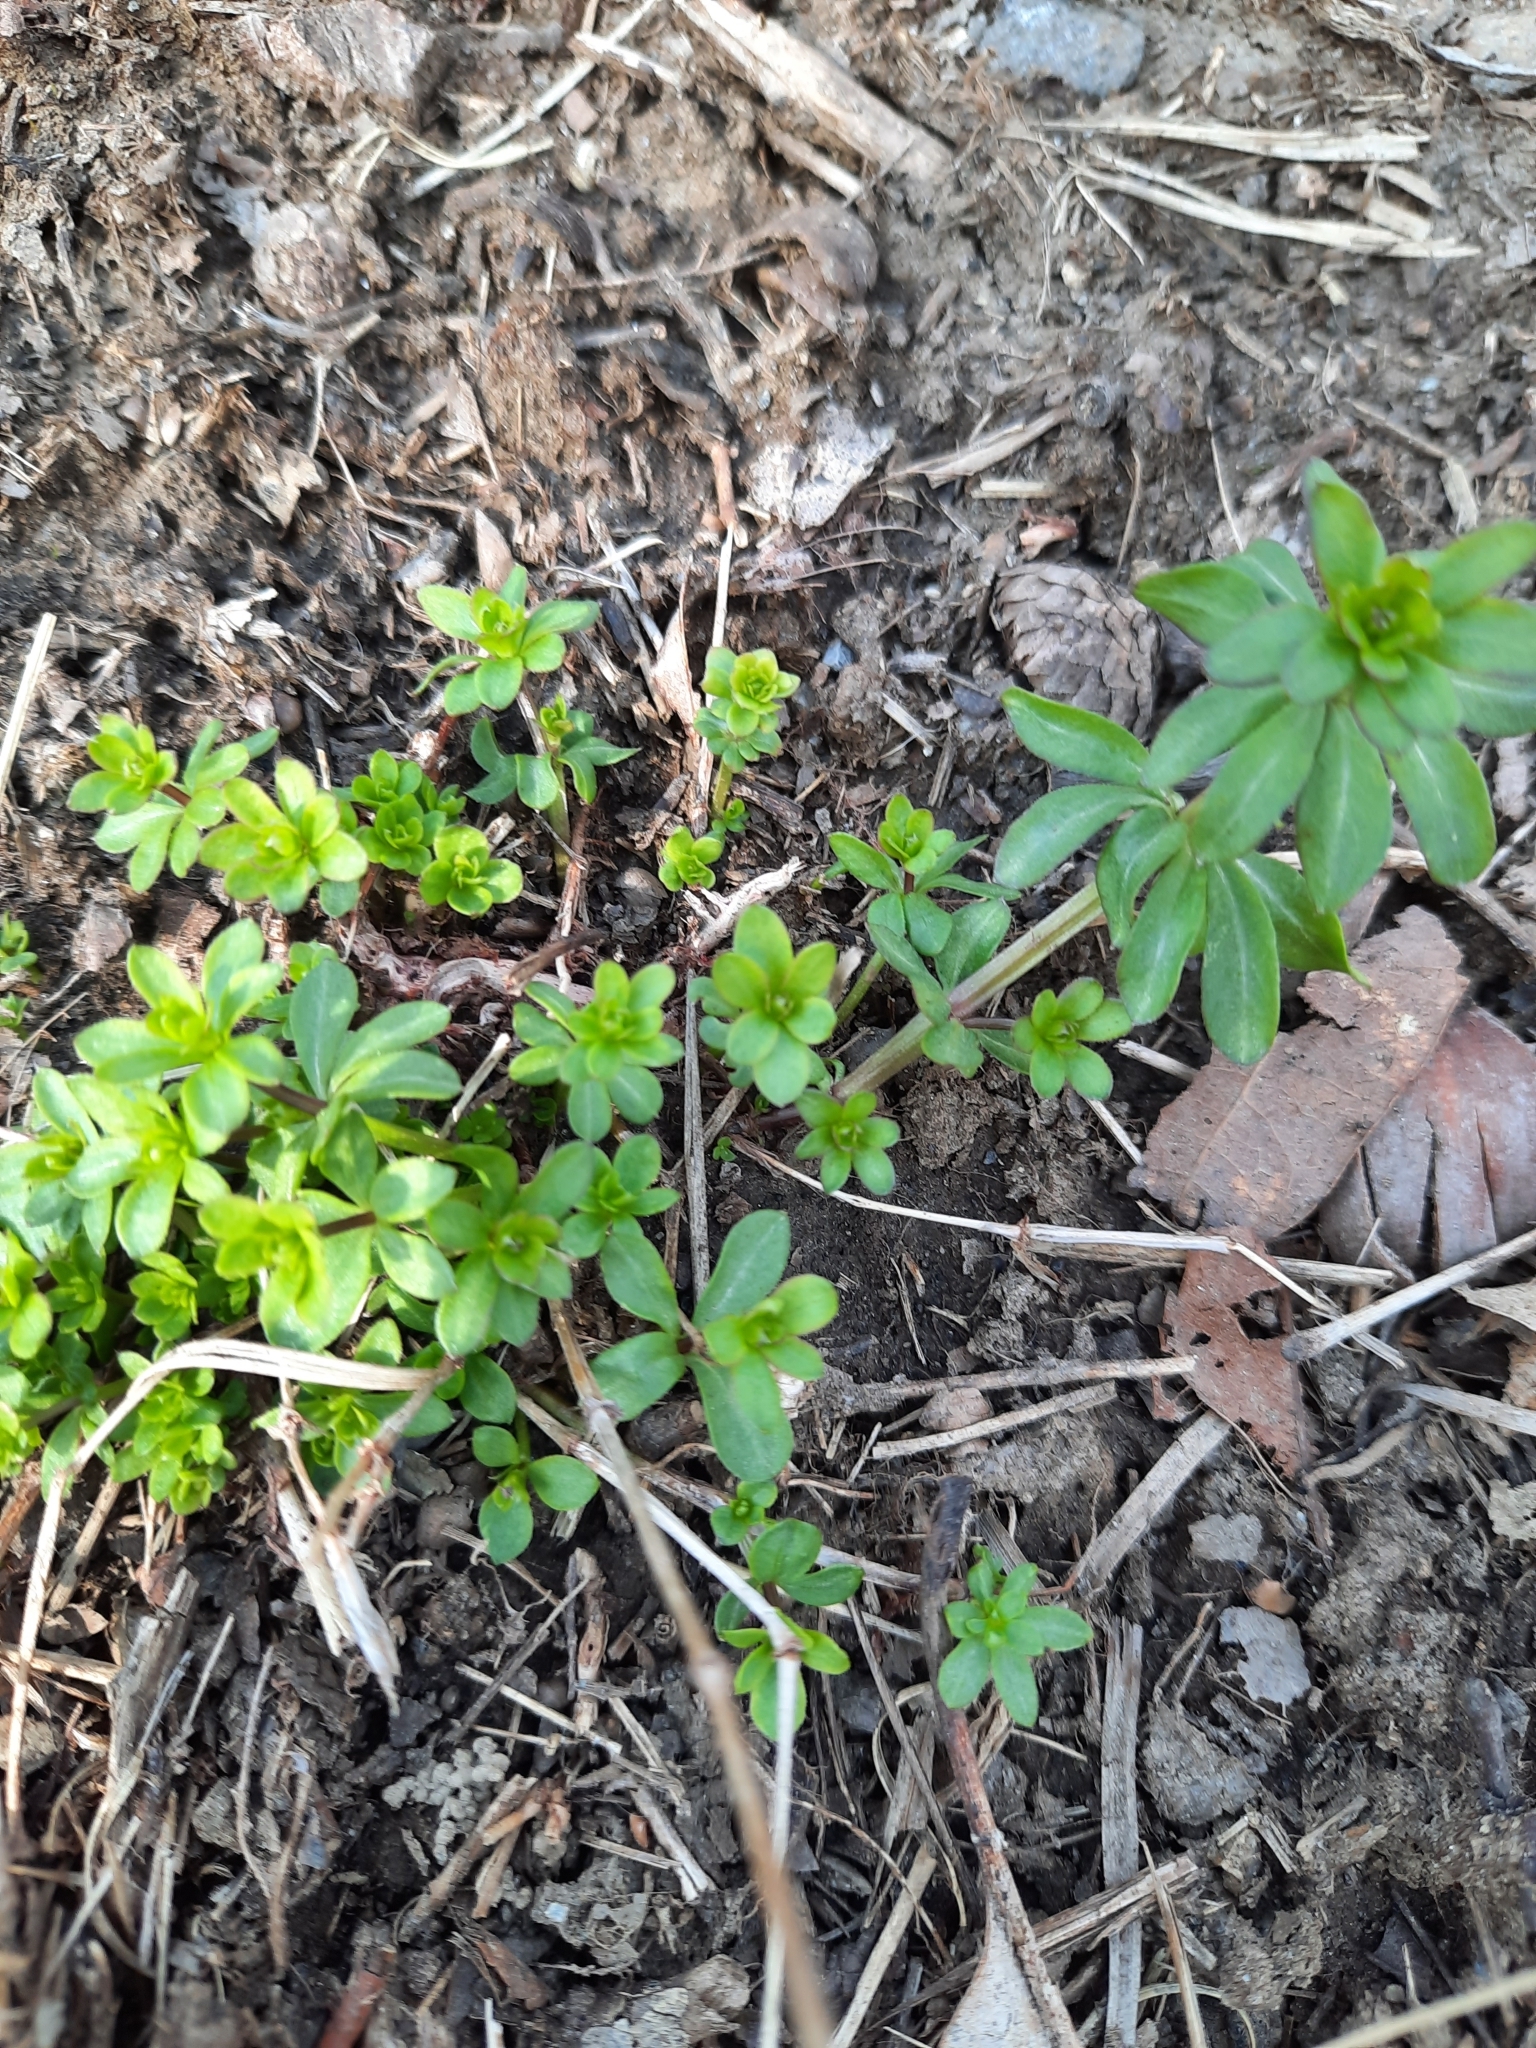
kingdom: Plantae
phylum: Tracheophyta
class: Magnoliopsida
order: Gentianales
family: Rubiaceae
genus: Galium
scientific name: Galium mollugo
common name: Hedge bedstraw
